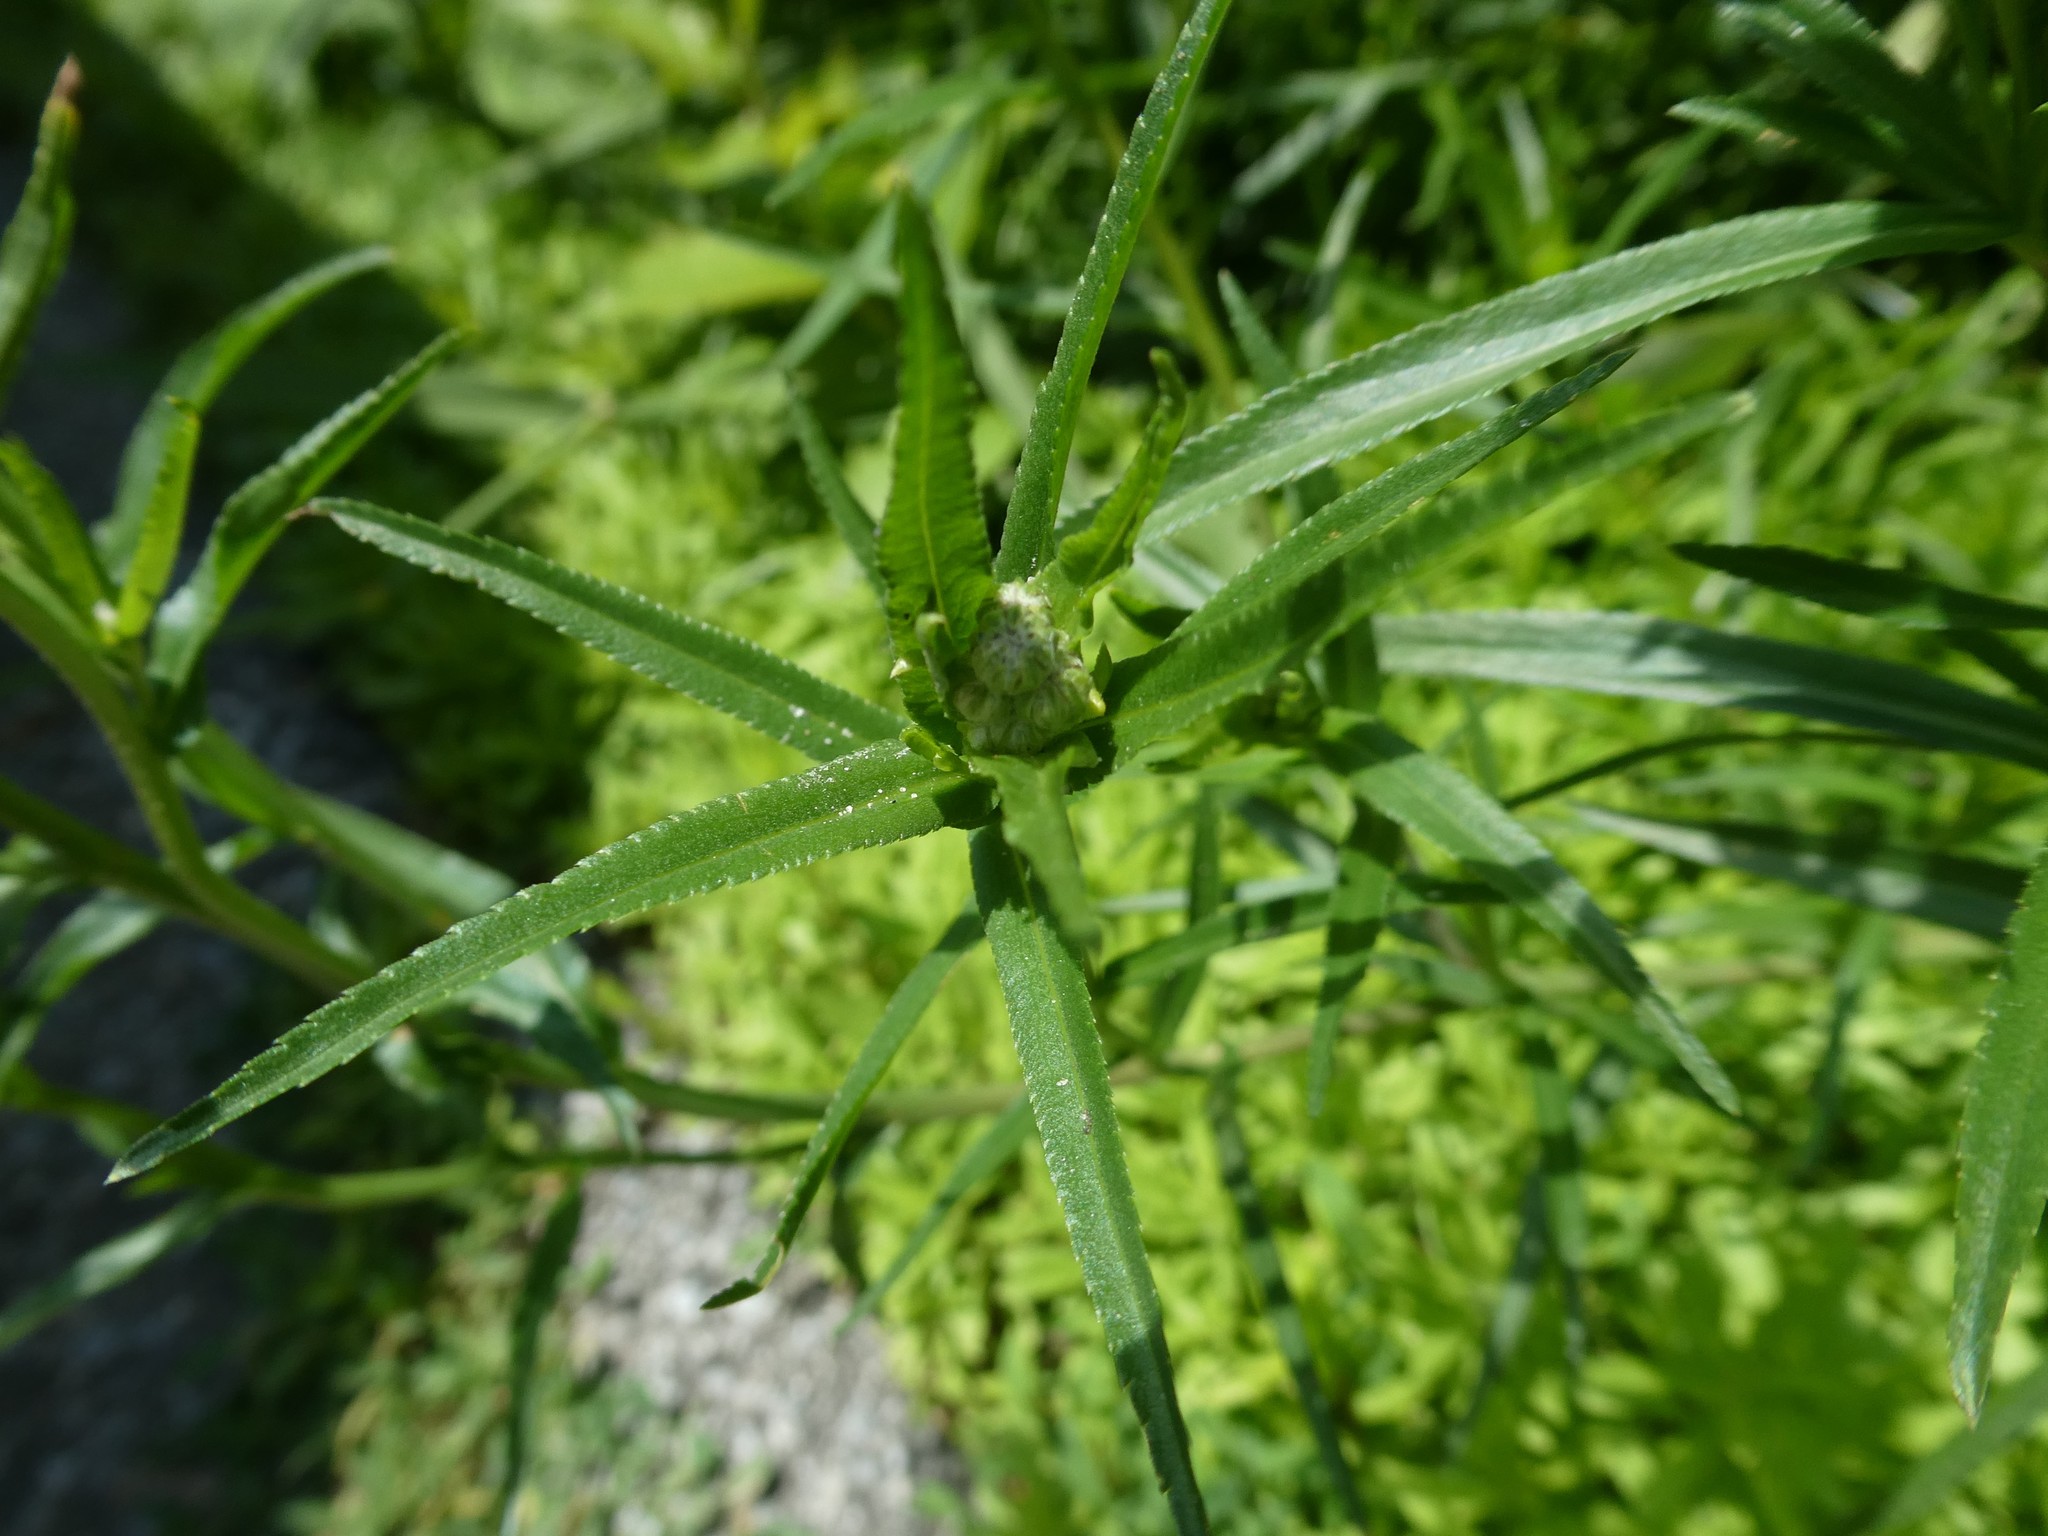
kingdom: Plantae
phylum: Tracheophyta
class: Magnoliopsida
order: Asterales
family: Asteraceae
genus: Achillea
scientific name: Achillea ptarmica
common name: Sneezeweed
